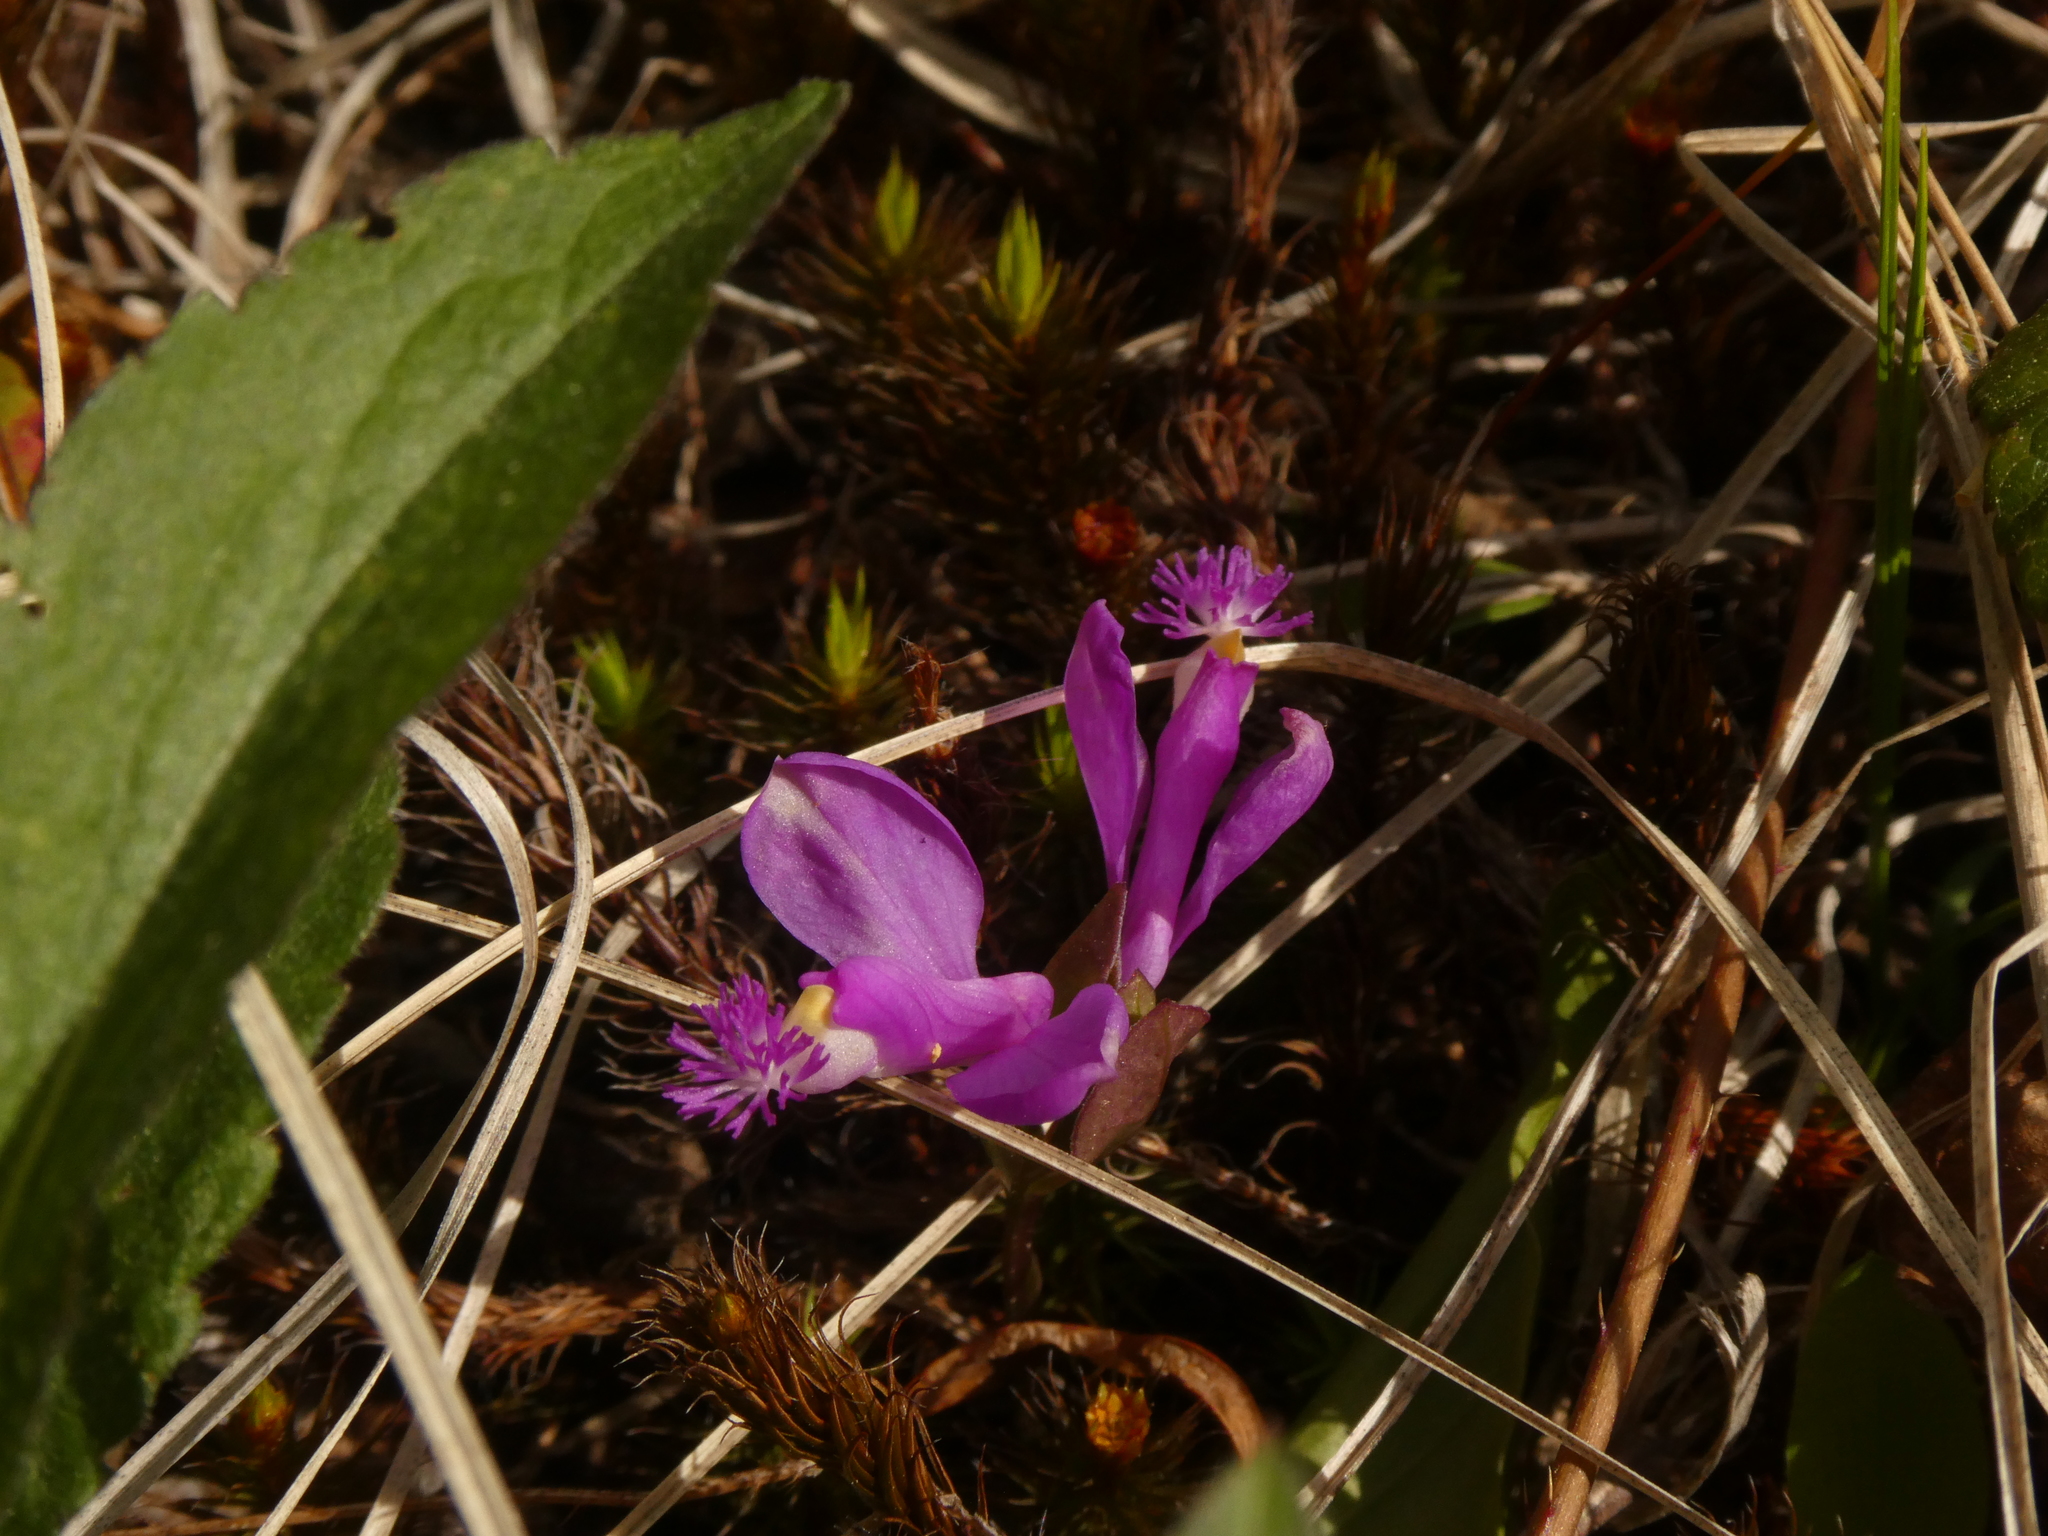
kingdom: Plantae
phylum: Tracheophyta
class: Magnoliopsida
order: Fabales
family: Polygalaceae
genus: Polygaloides
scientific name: Polygaloides paucifolia
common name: Bird-on-the-wing
